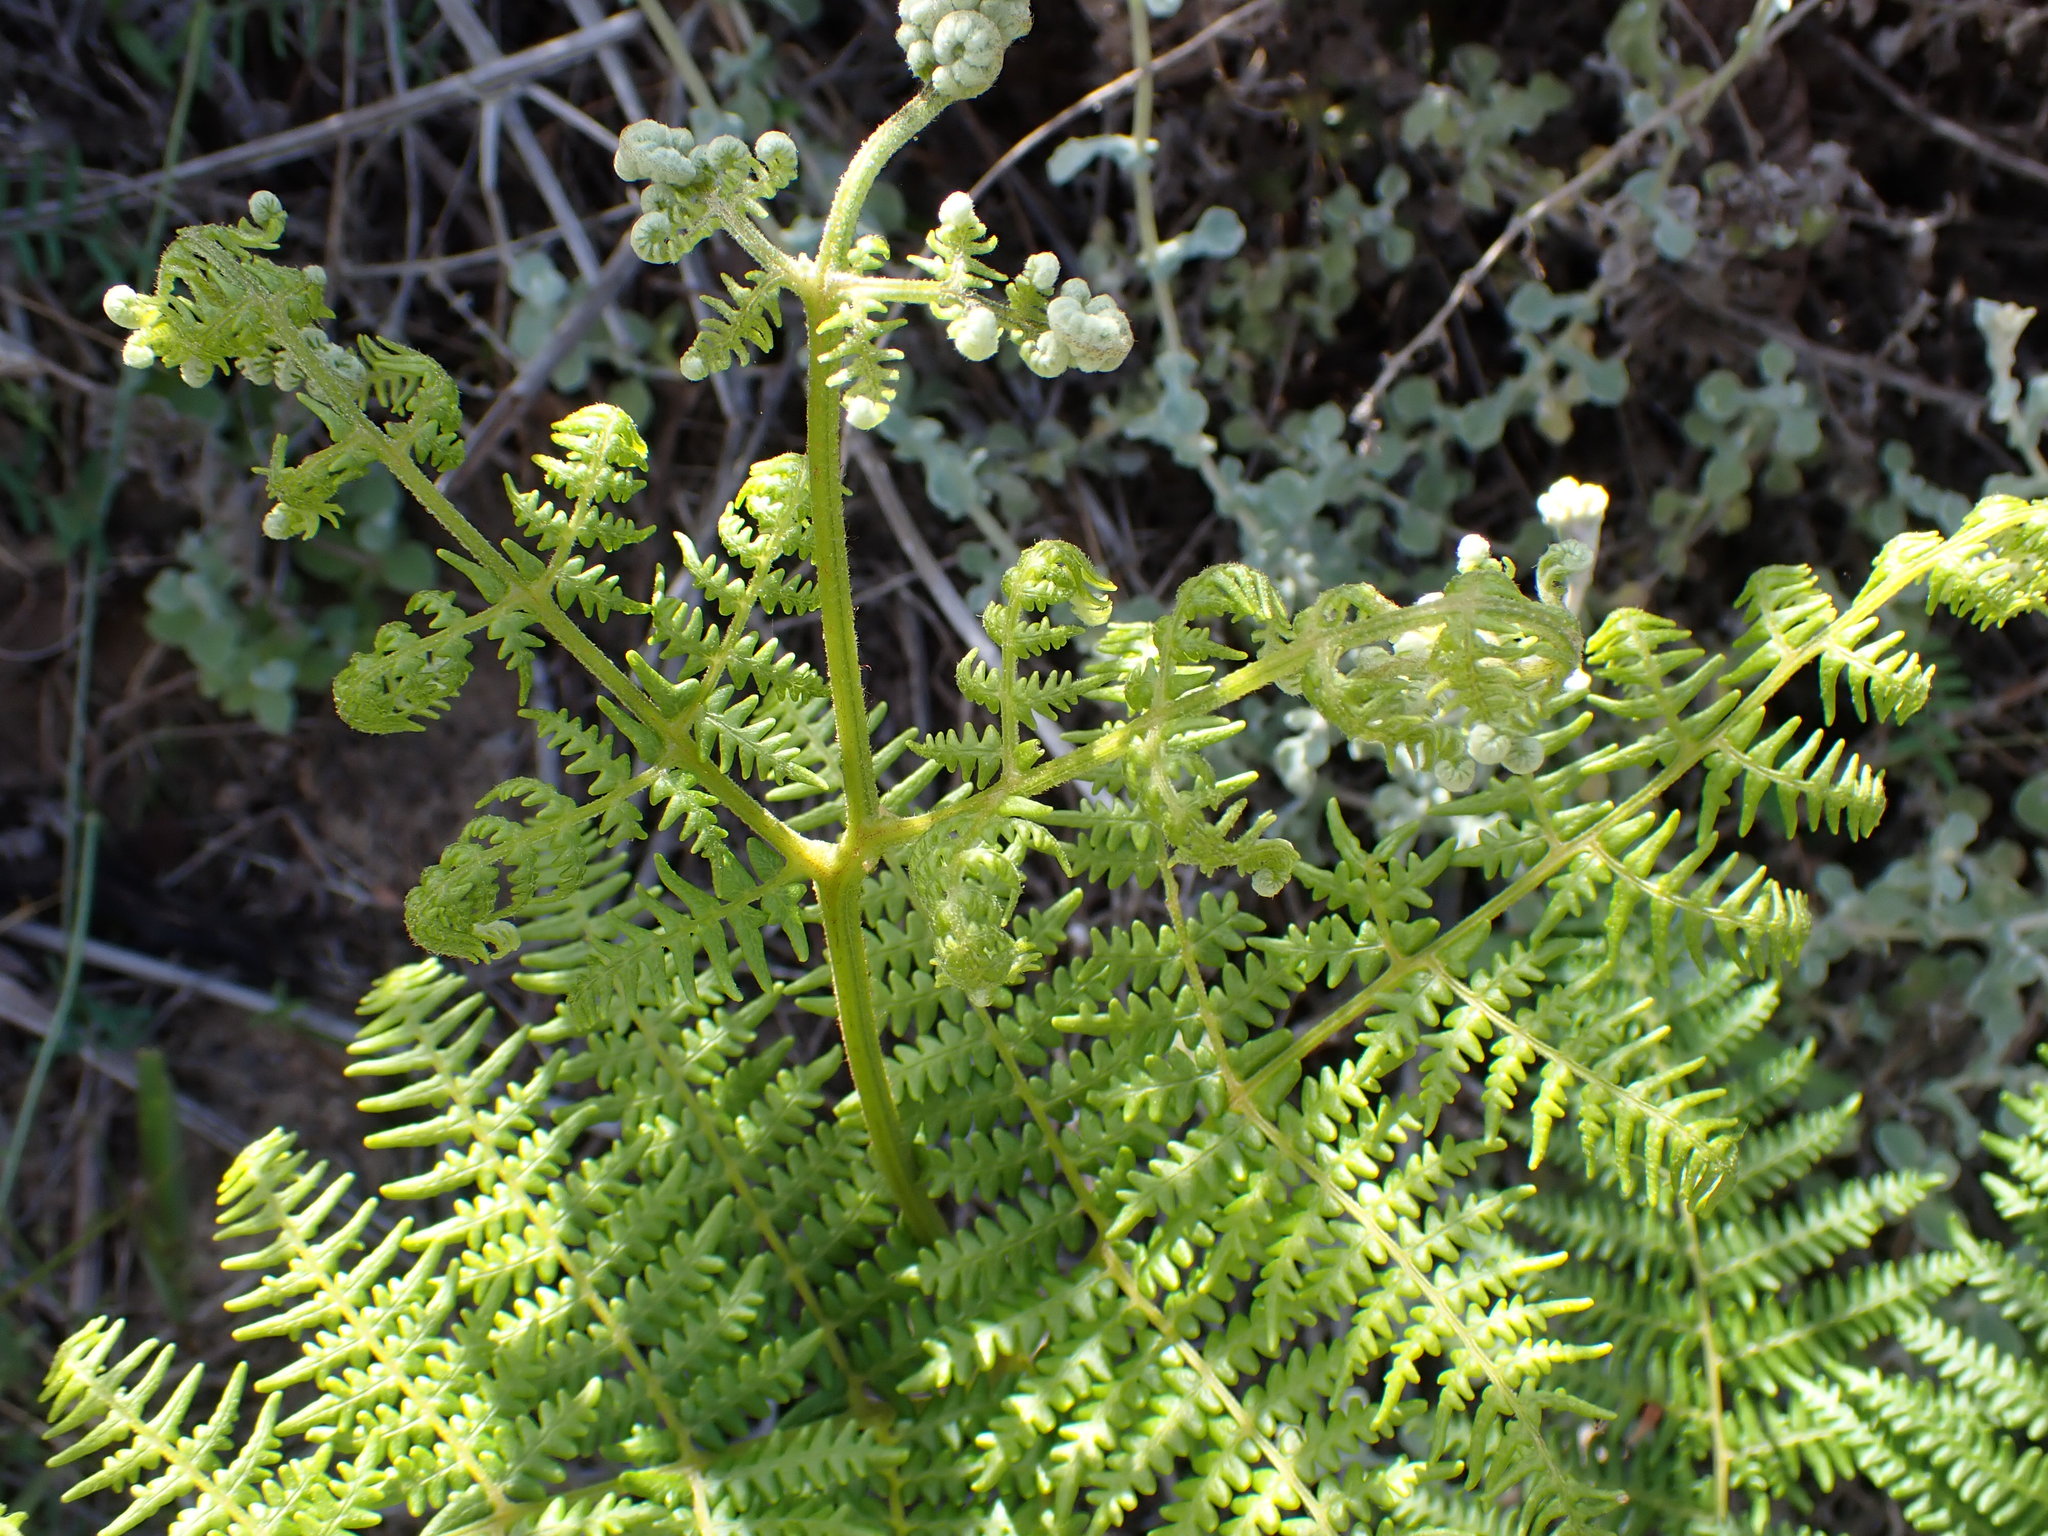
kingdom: Plantae
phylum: Tracheophyta
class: Polypodiopsida
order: Polypodiales
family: Dennstaedtiaceae
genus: Pteridium
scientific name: Pteridium aquilinum
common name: Bracken
